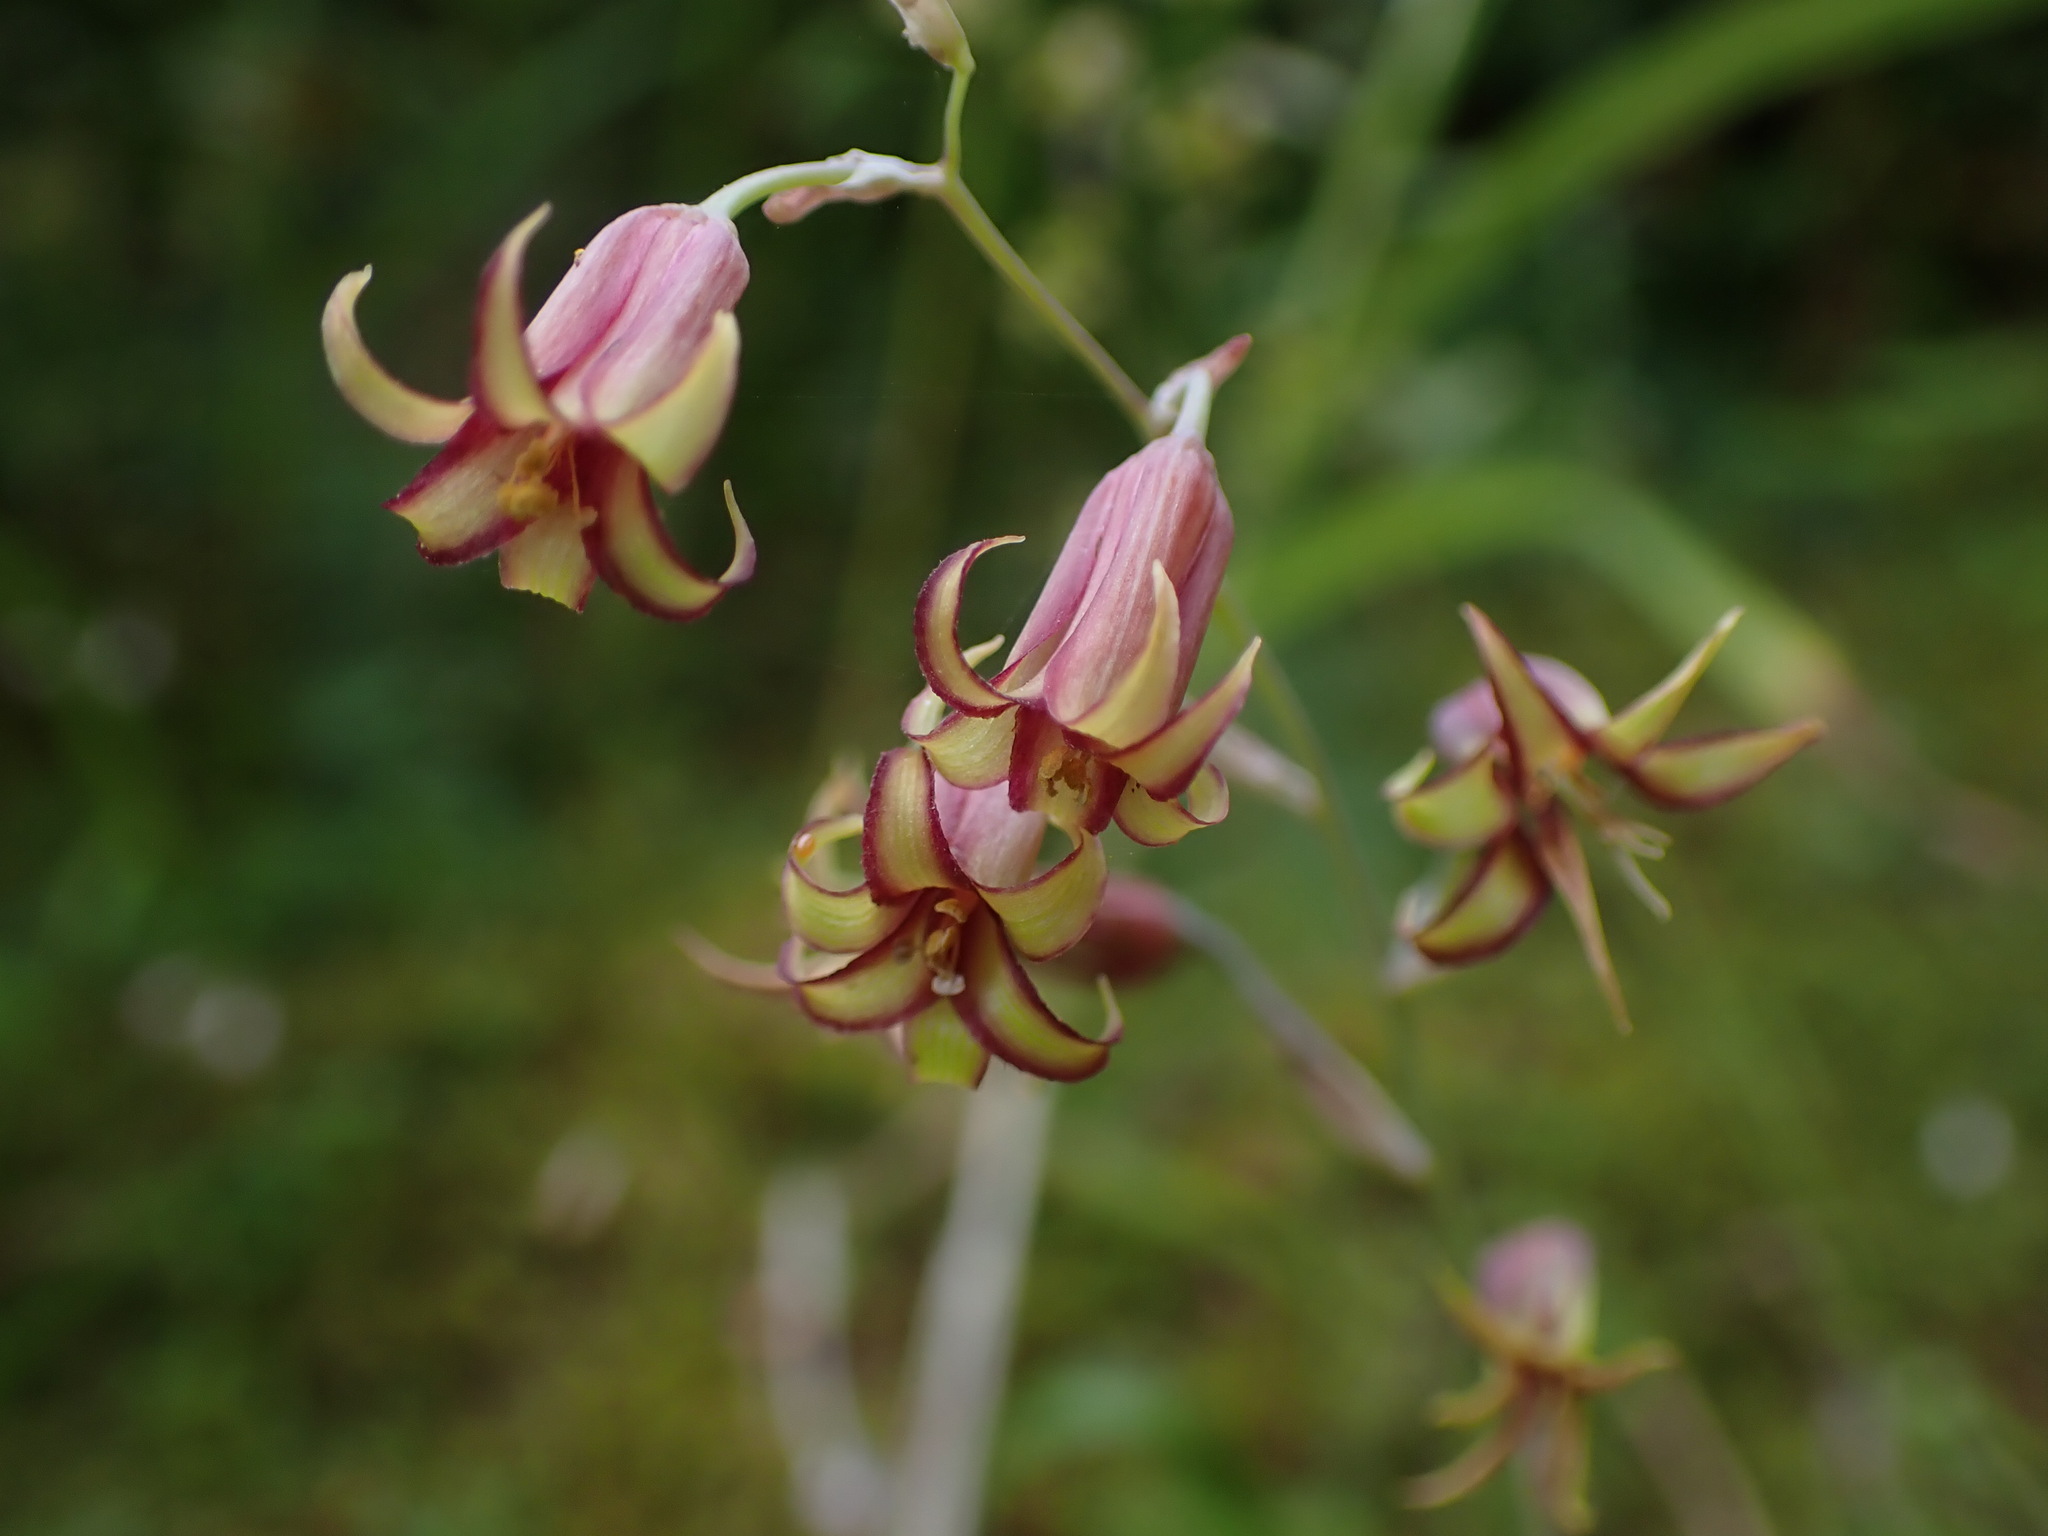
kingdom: Plantae
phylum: Tracheophyta
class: Liliopsida
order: Liliales
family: Melanthiaceae
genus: Anticlea
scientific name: Anticlea occidentalis
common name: Bronze-bells
